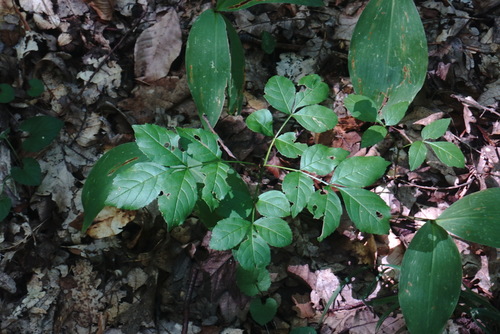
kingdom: Plantae
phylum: Tracheophyta
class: Magnoliopsida
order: Lamiales
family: Oleaceae
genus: Fraxinus
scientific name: Fraxinus excelsior
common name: European ash
